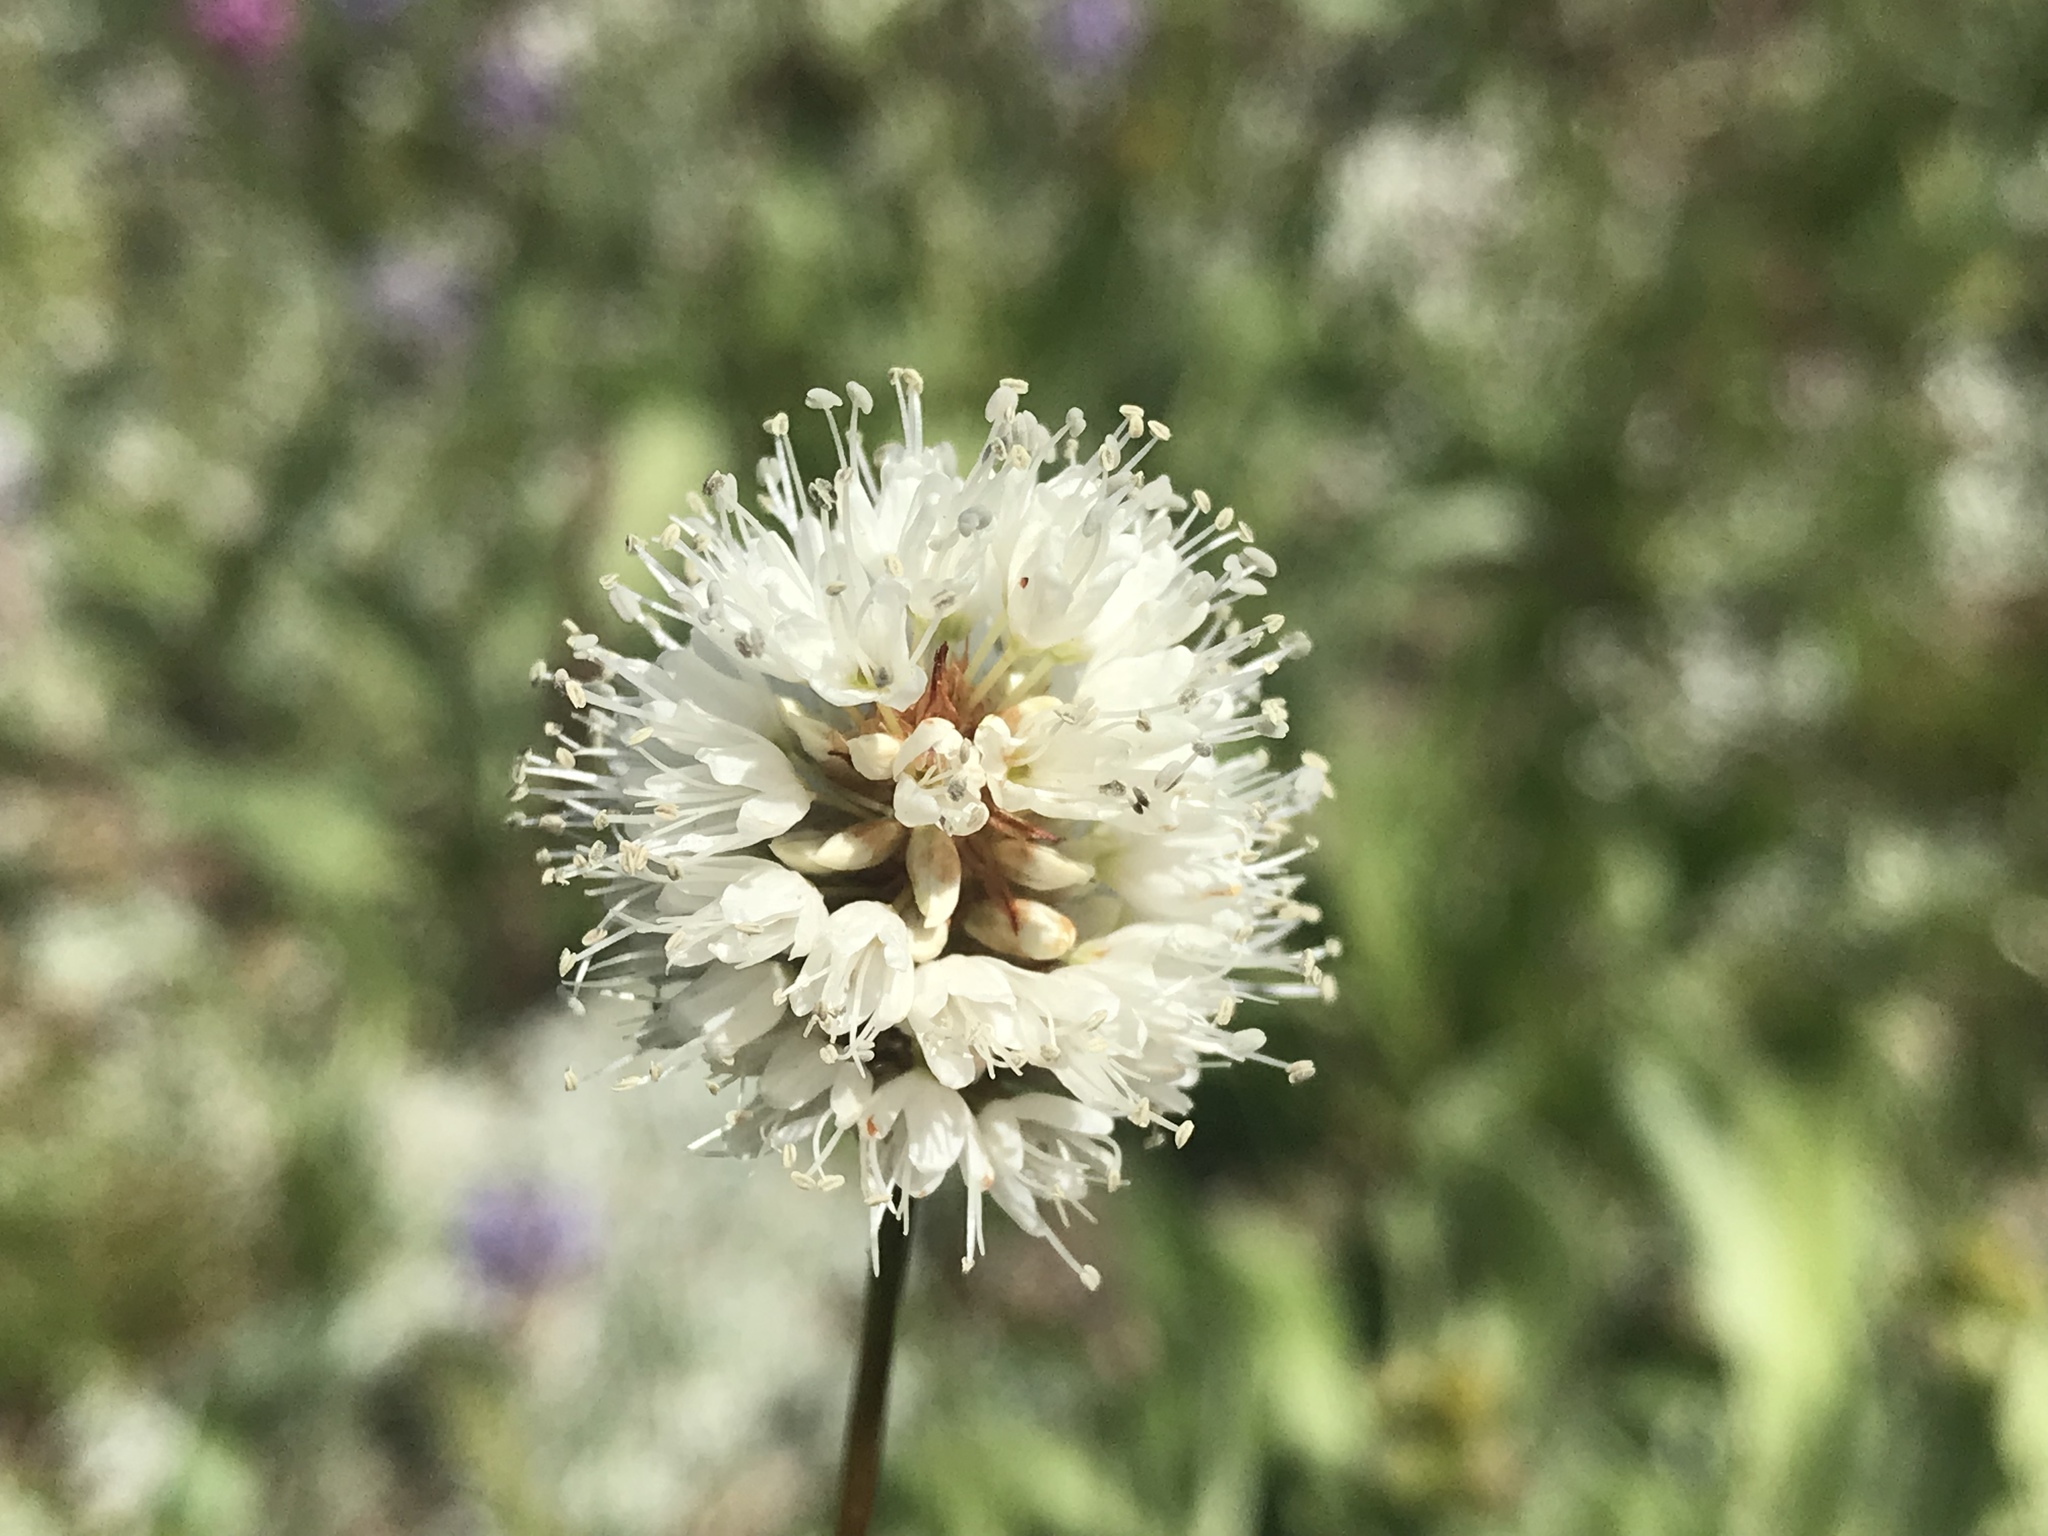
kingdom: Plantae
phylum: Tracheophyta
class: Magnoliopsida
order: Caryophyllales
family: Polygonaceae
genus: Bistorta
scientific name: Bistorta bistortoides
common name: American bistort
